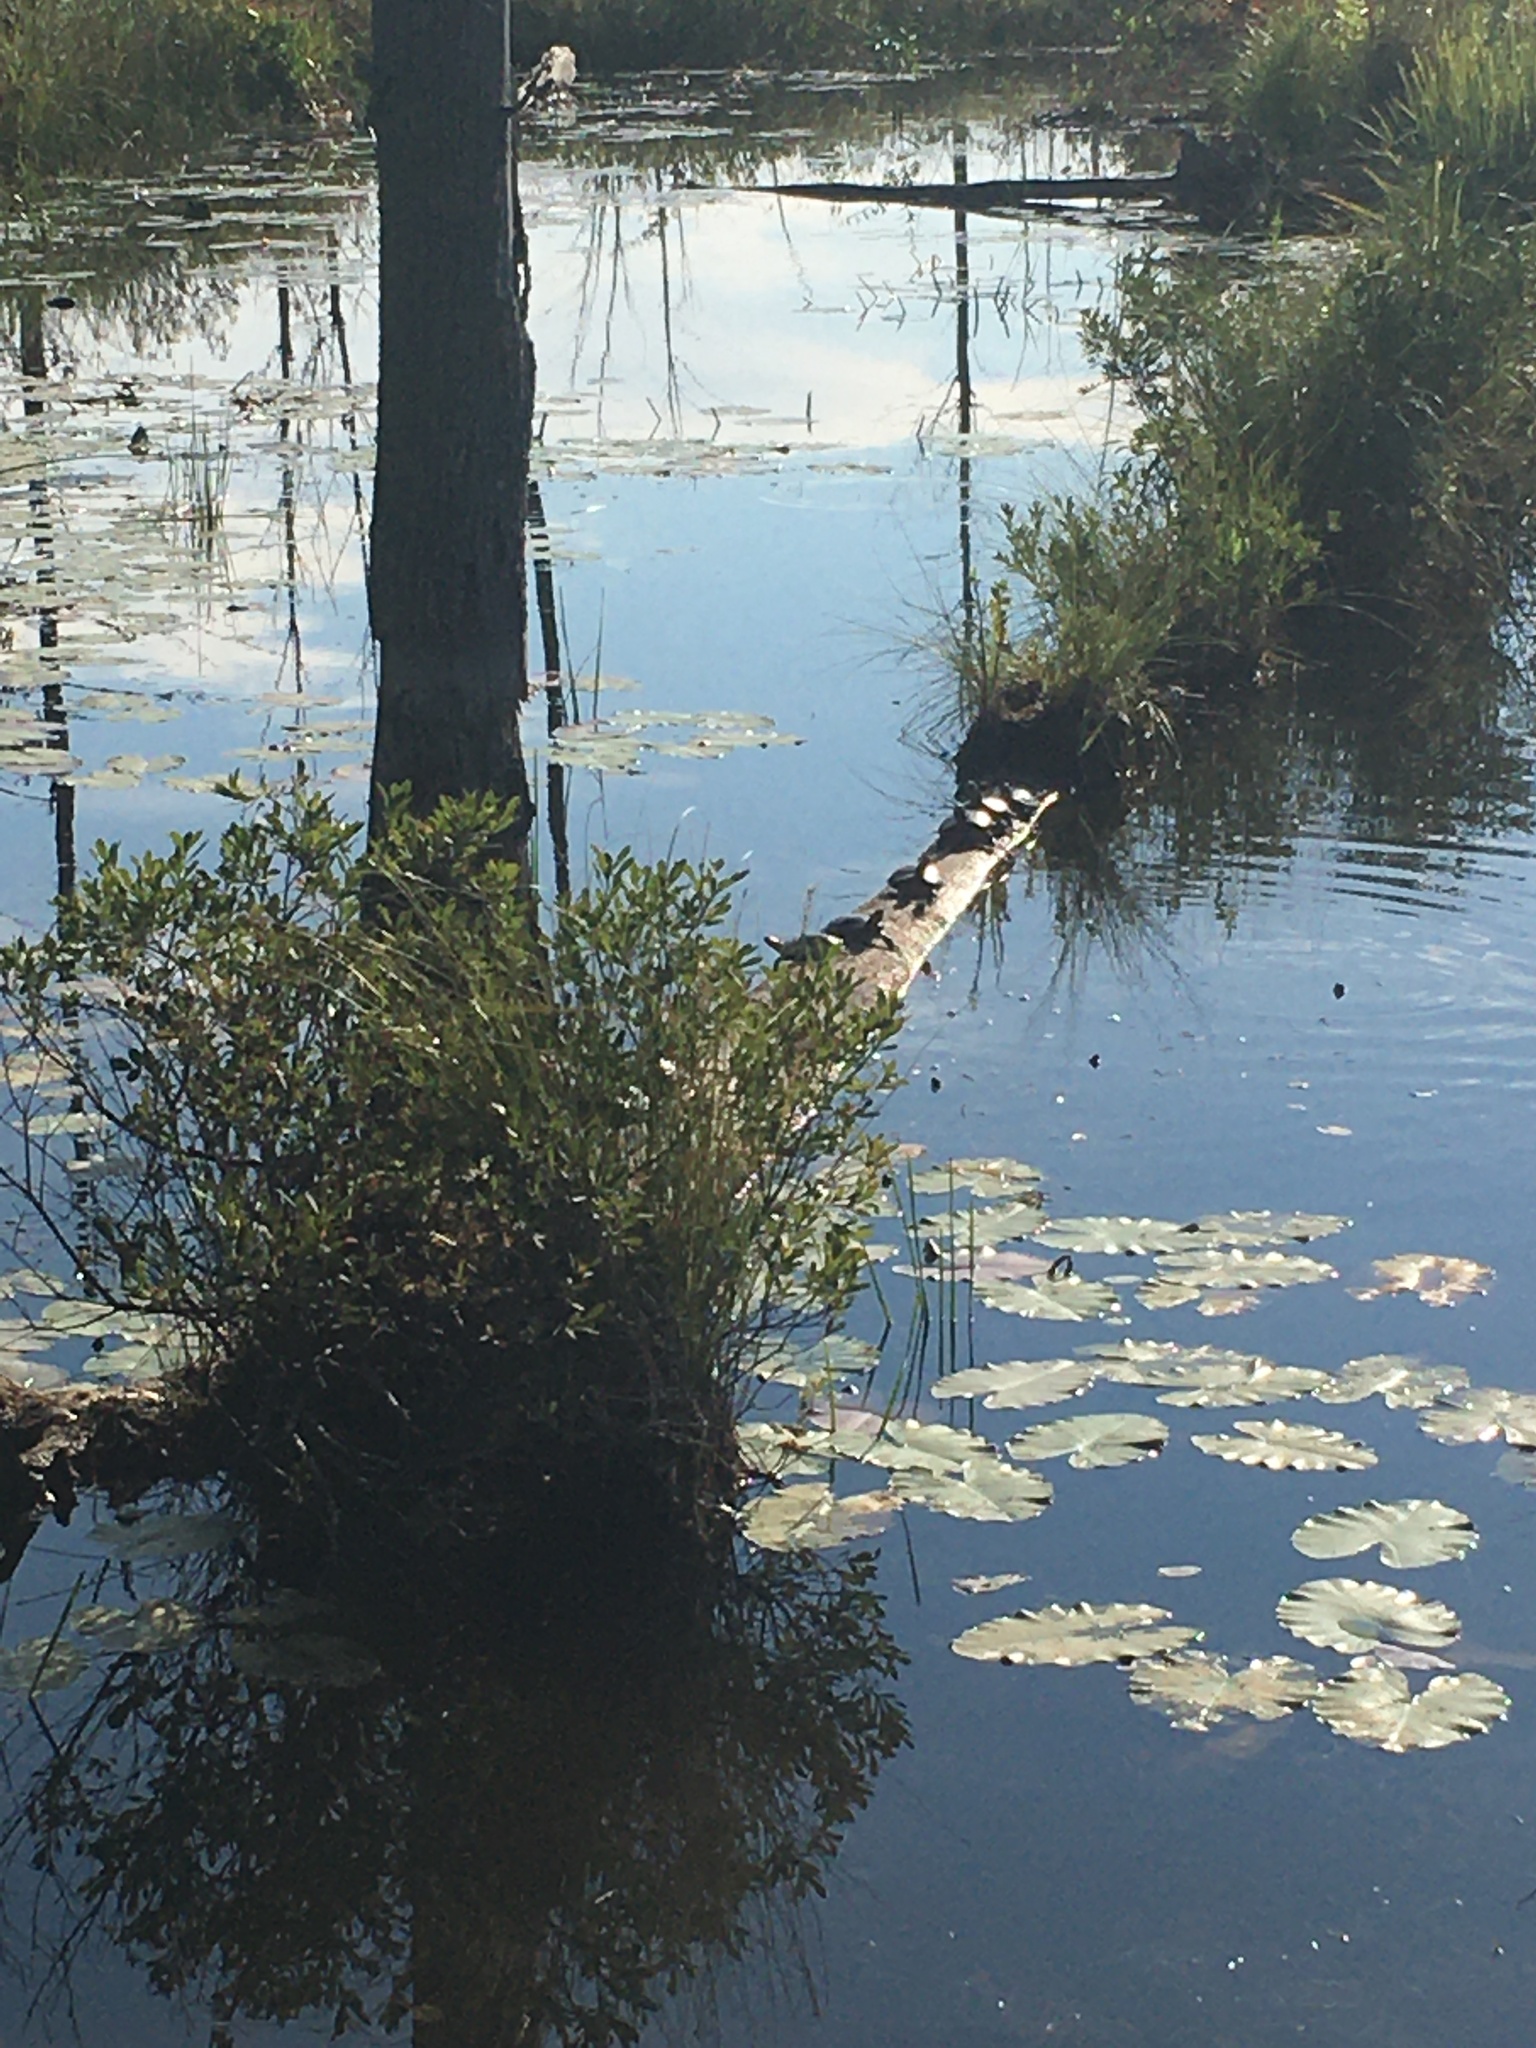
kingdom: Animalia
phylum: Chordata
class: Testudines
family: Emydidae
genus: Chrysemys
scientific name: Chrysemys picta
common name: Painted turtle
